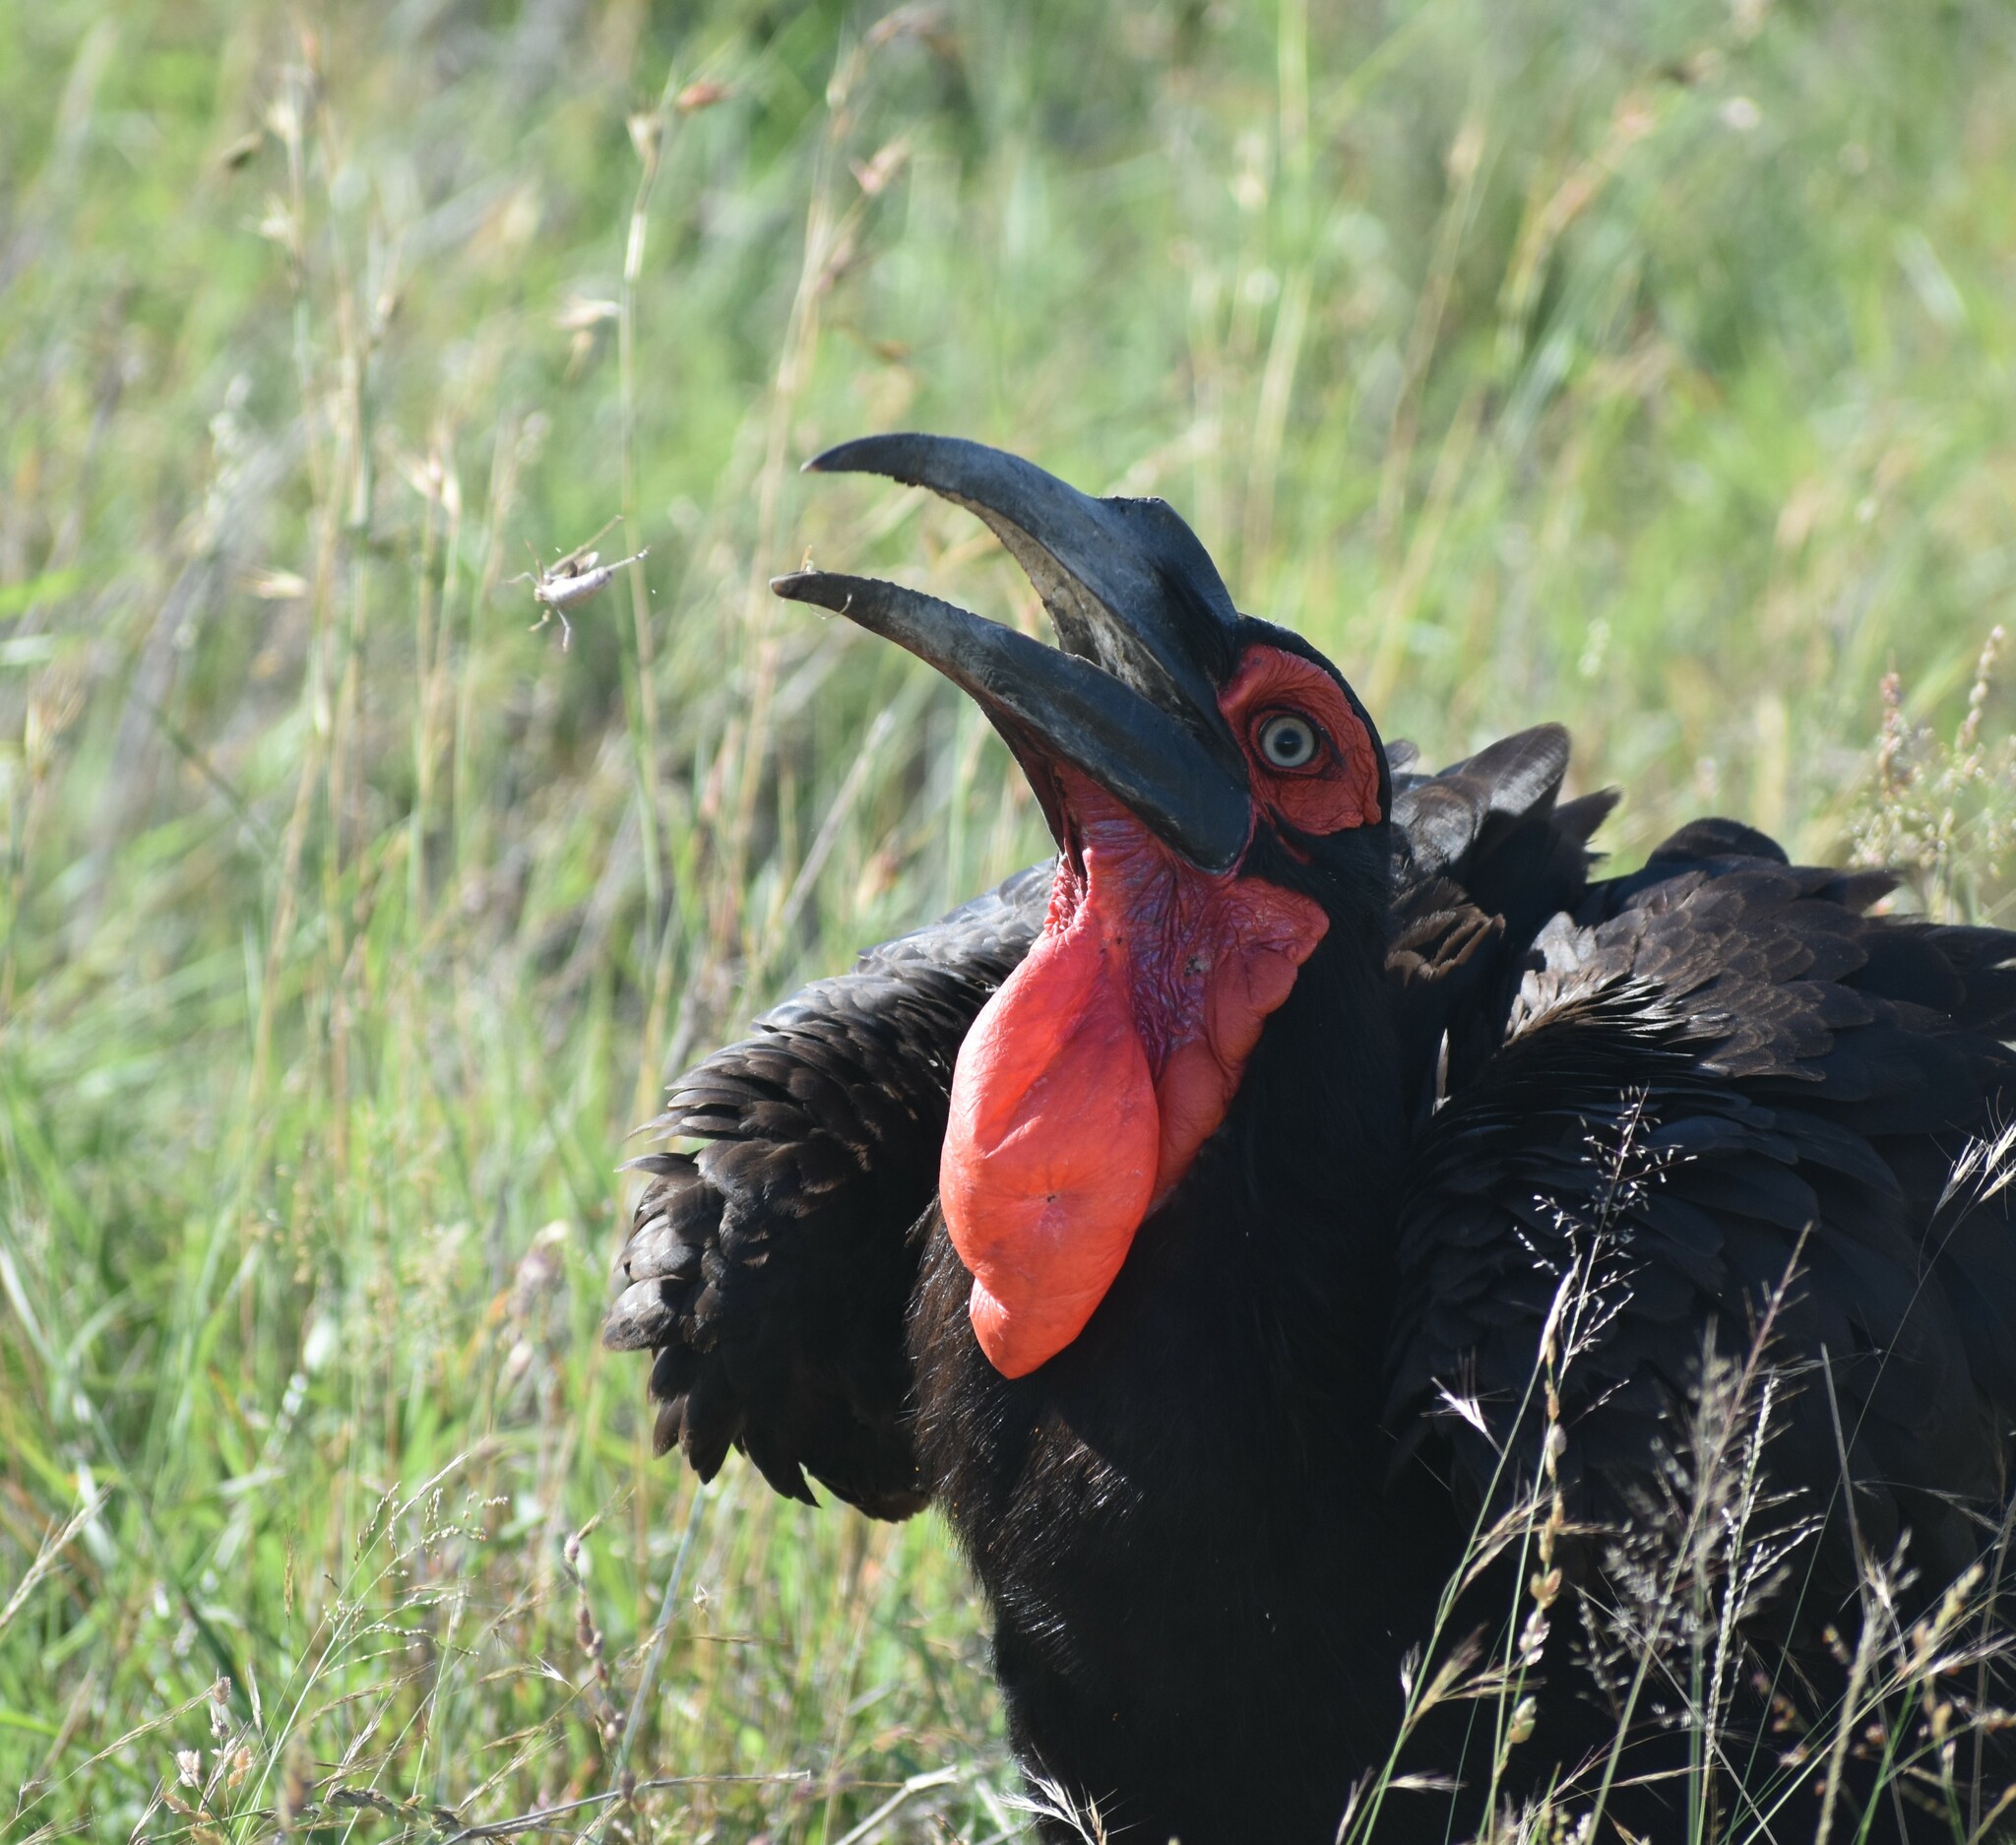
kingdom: Animalia
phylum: Chordata
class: Aves
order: Bucerotiformes
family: Bucorvidae
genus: Bucorvus
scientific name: Bucorvus leadbeateri
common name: Southern ground-hornbill
